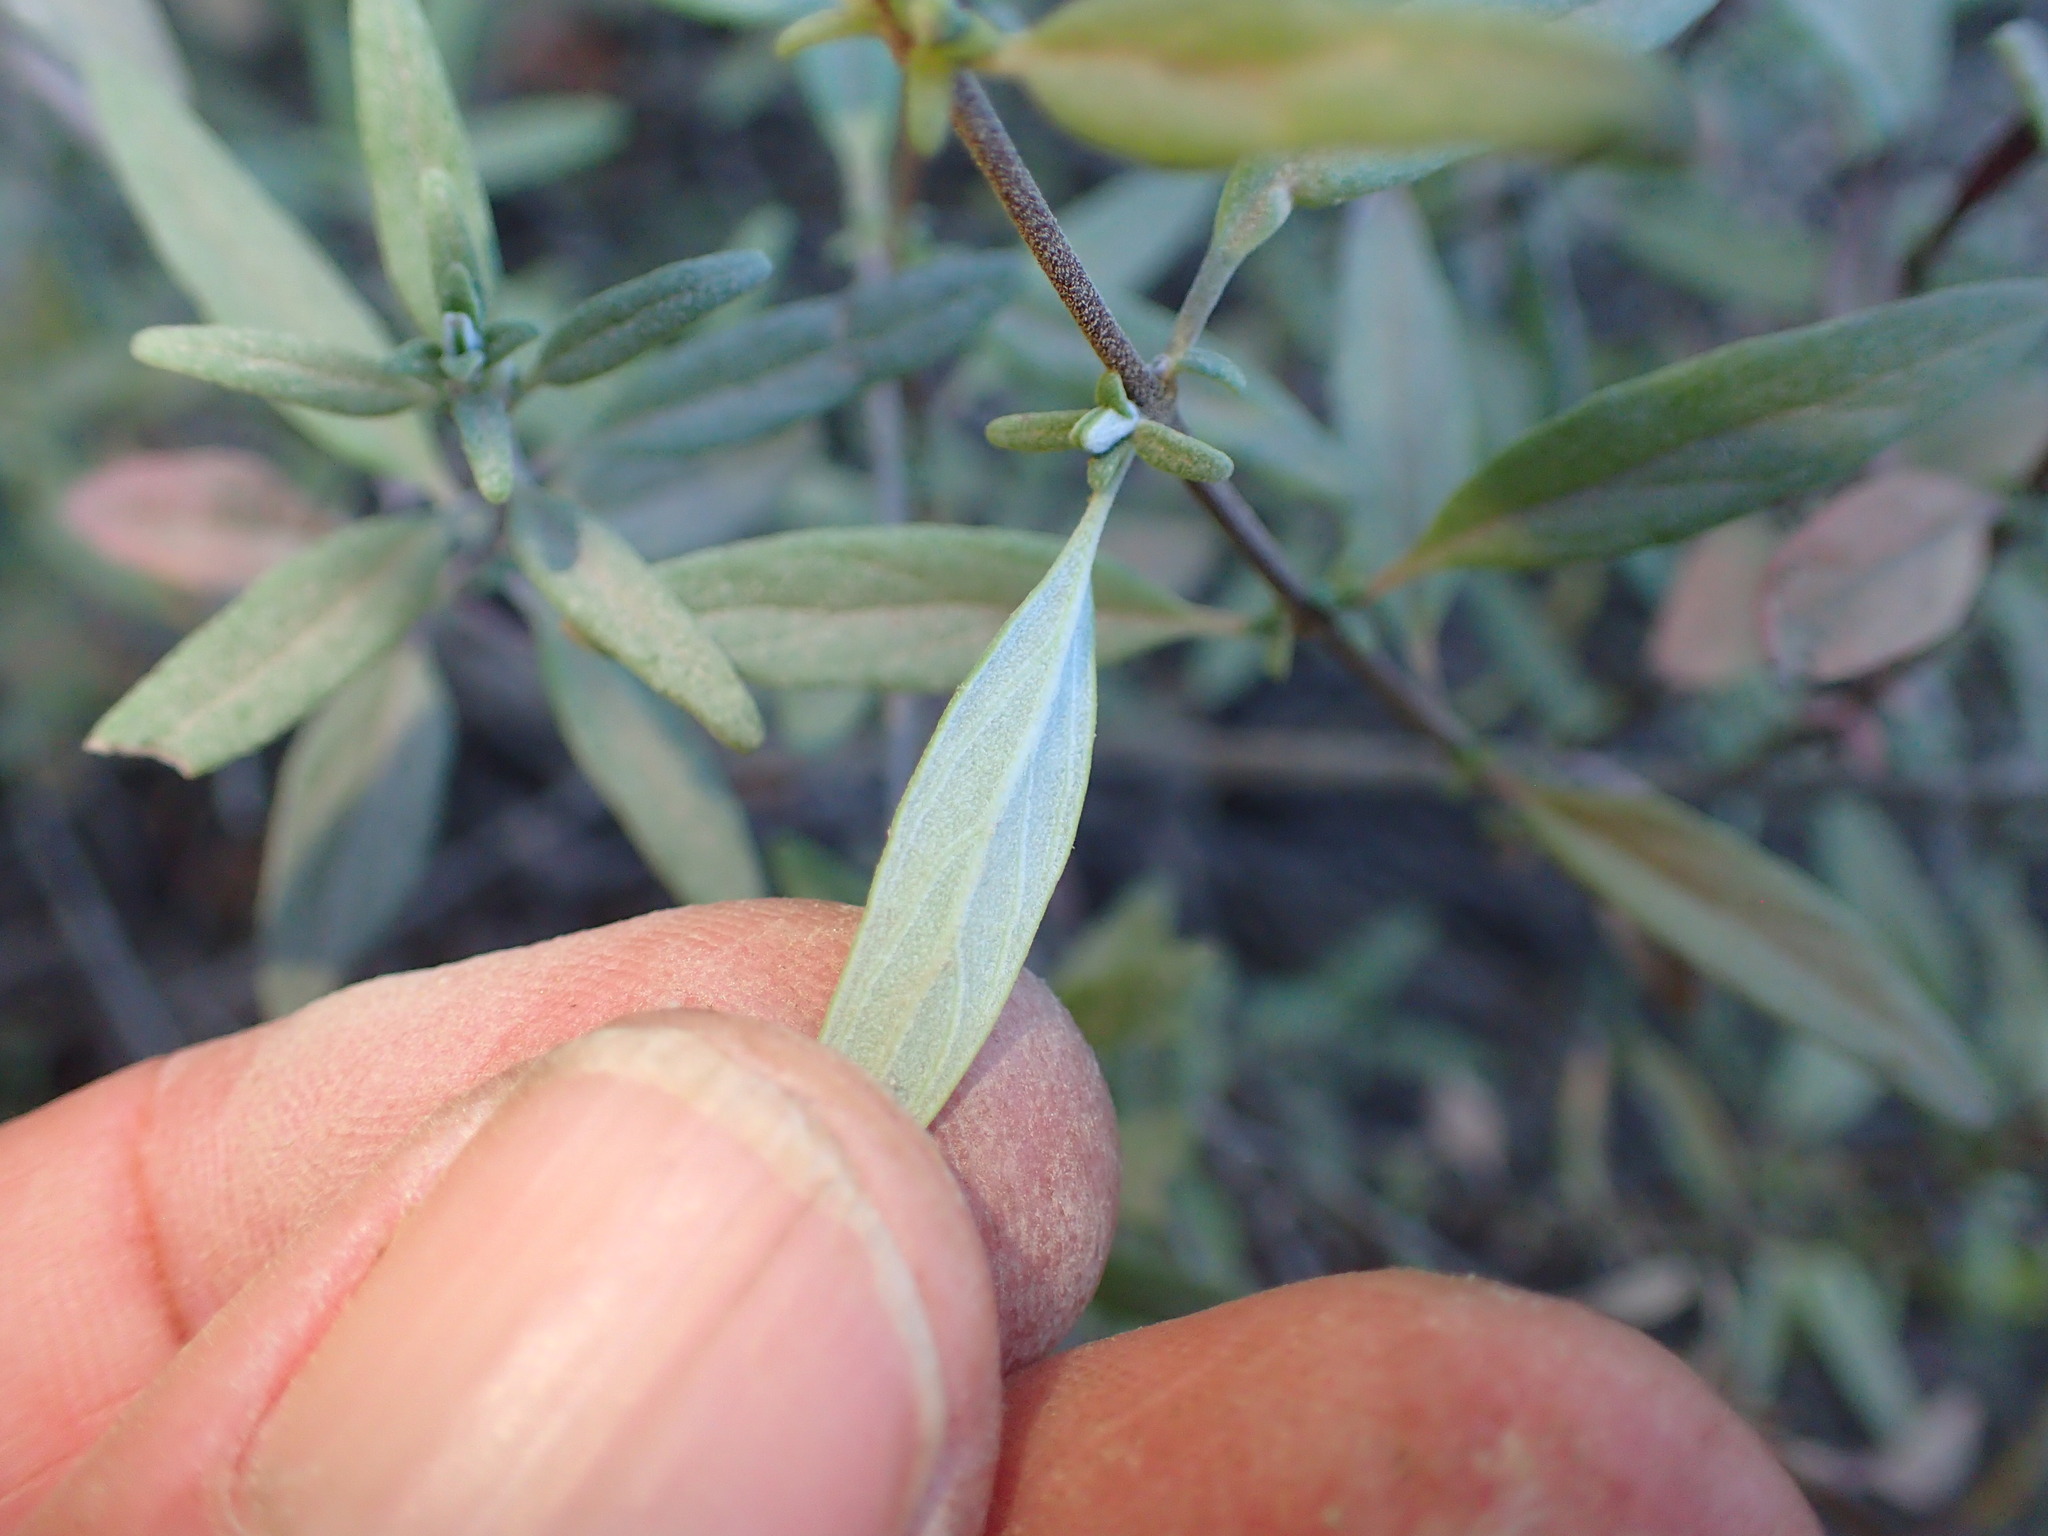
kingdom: Plantae
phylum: Tracheophyta
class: Magnoliopsida
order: Lamiales
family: Lamiaceae
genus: Monardella
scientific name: Monardella hypoleuca
